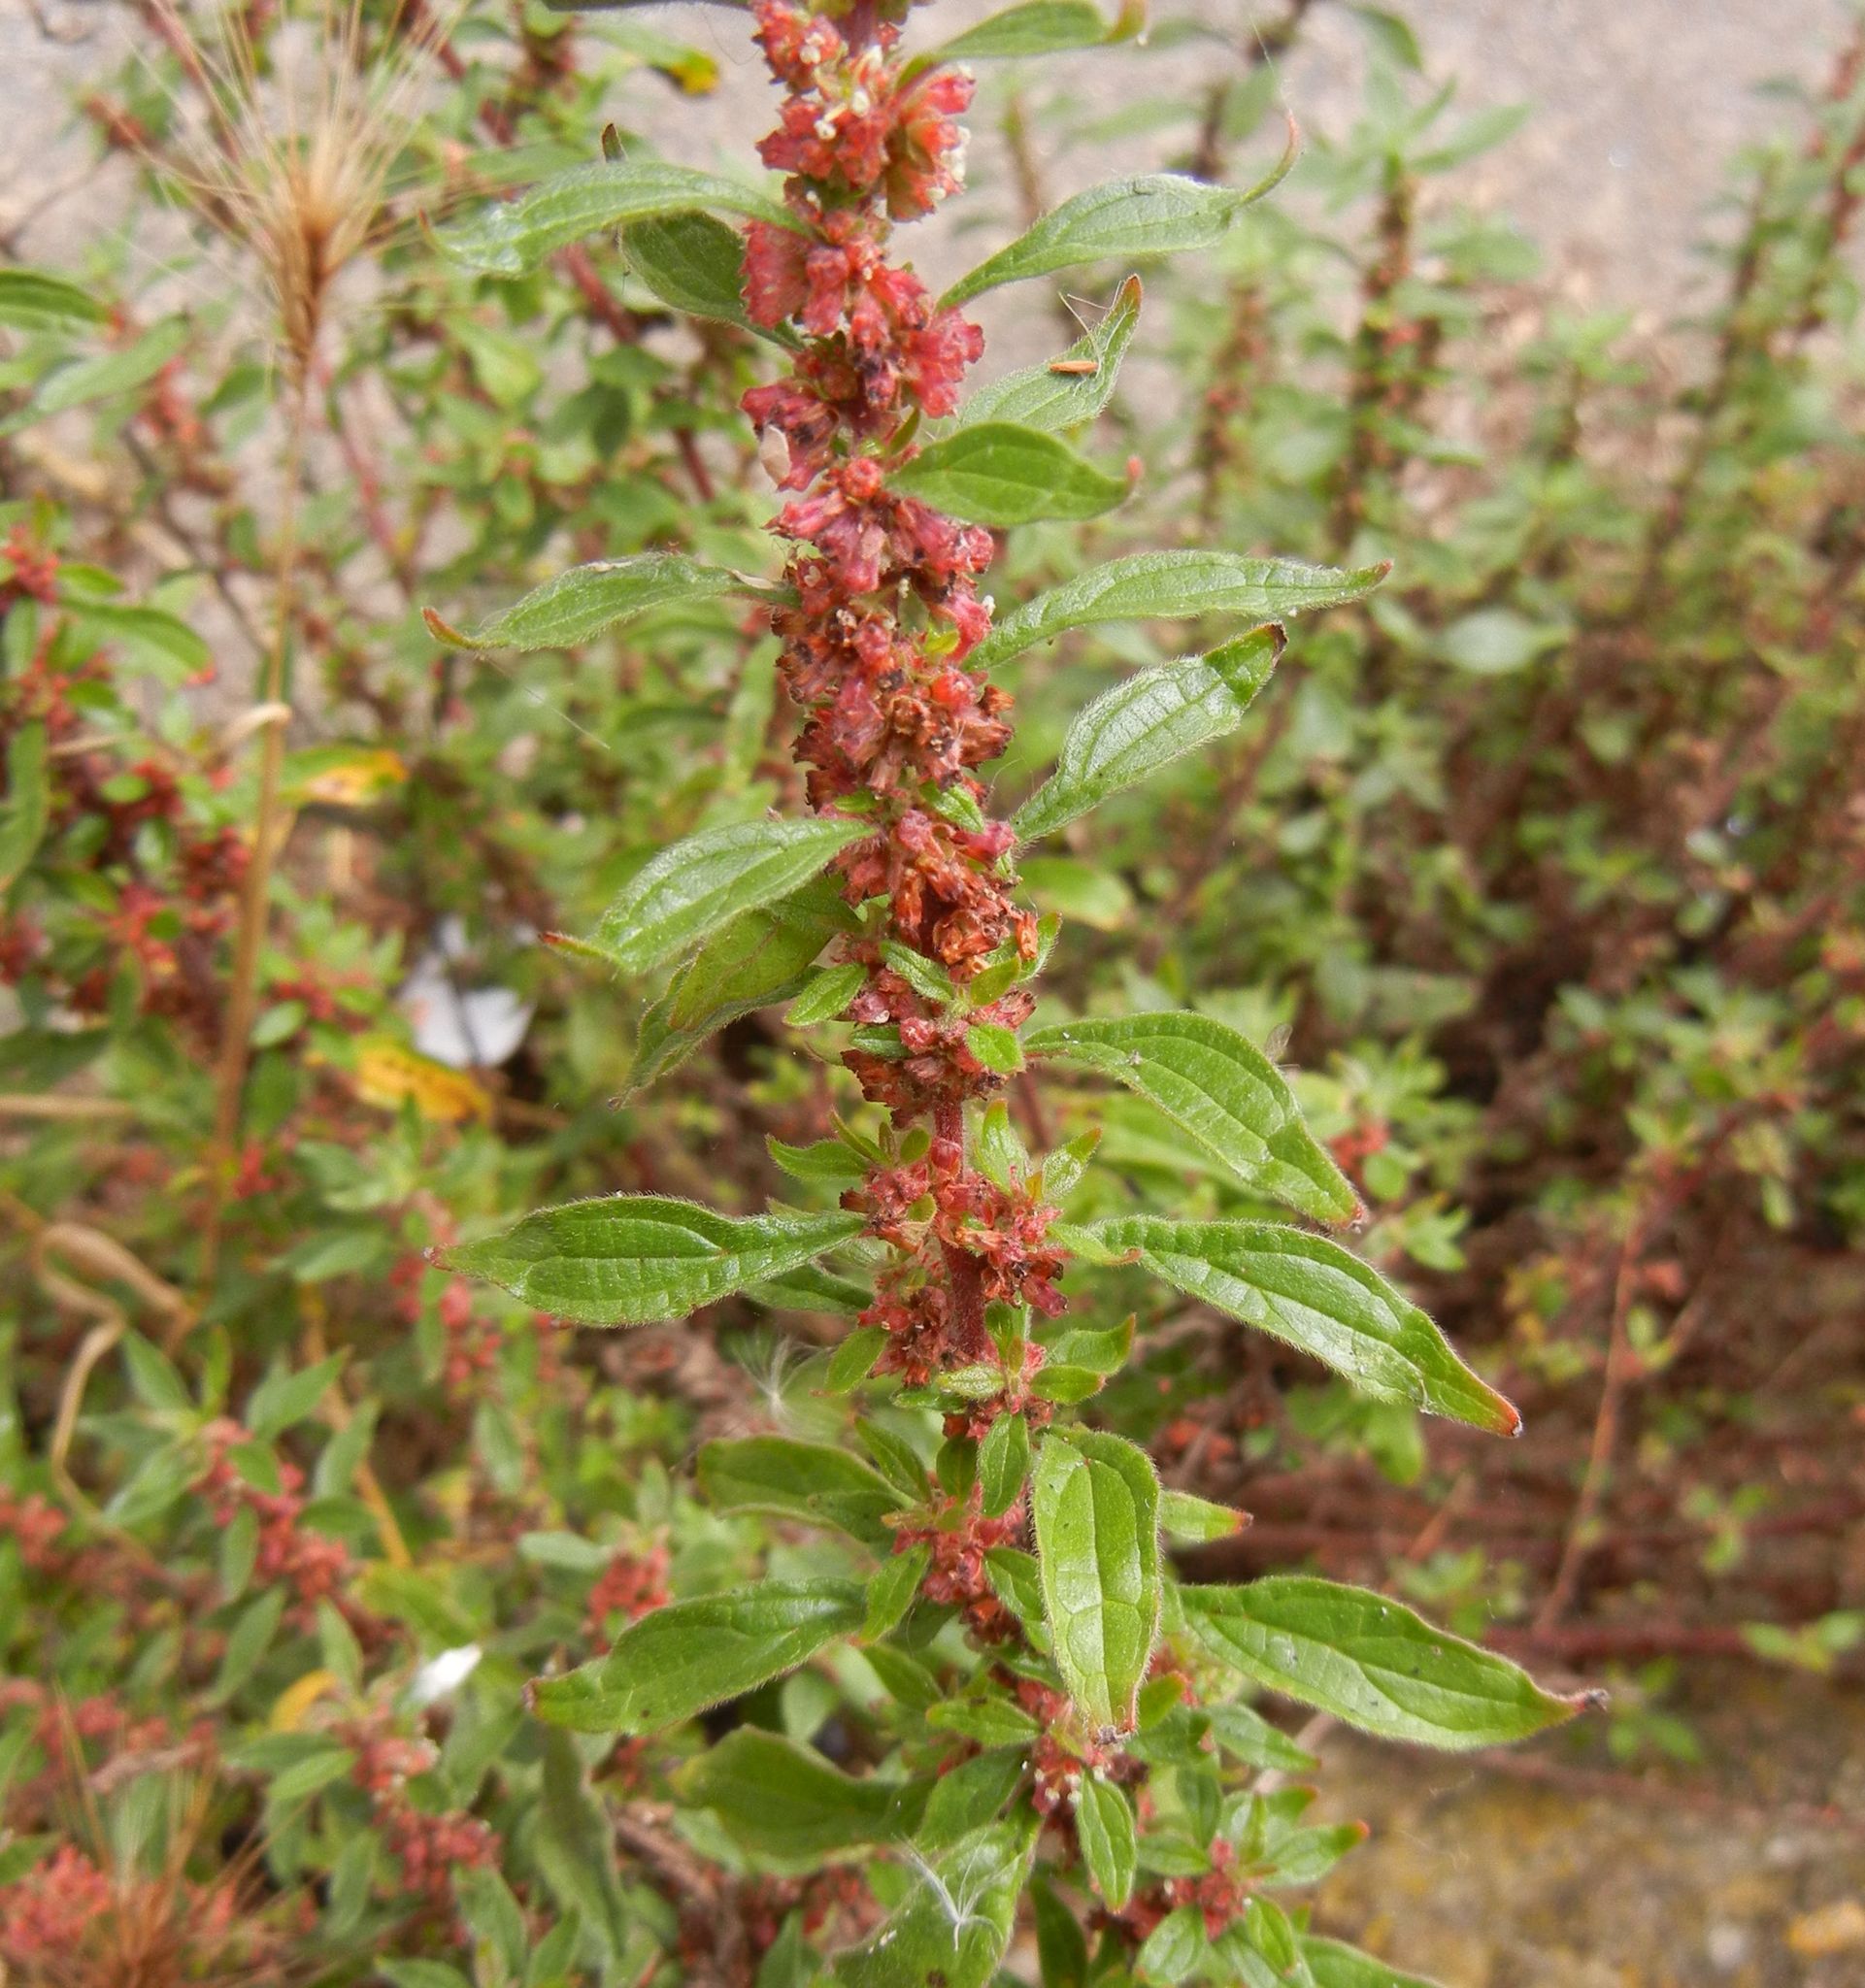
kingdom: Plantae
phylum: Tracheophyta
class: Magnoliopsida
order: Rosales
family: Urticaceae
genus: Parietaria
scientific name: Parietaria judaica
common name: Pellitory-of-the-wall
